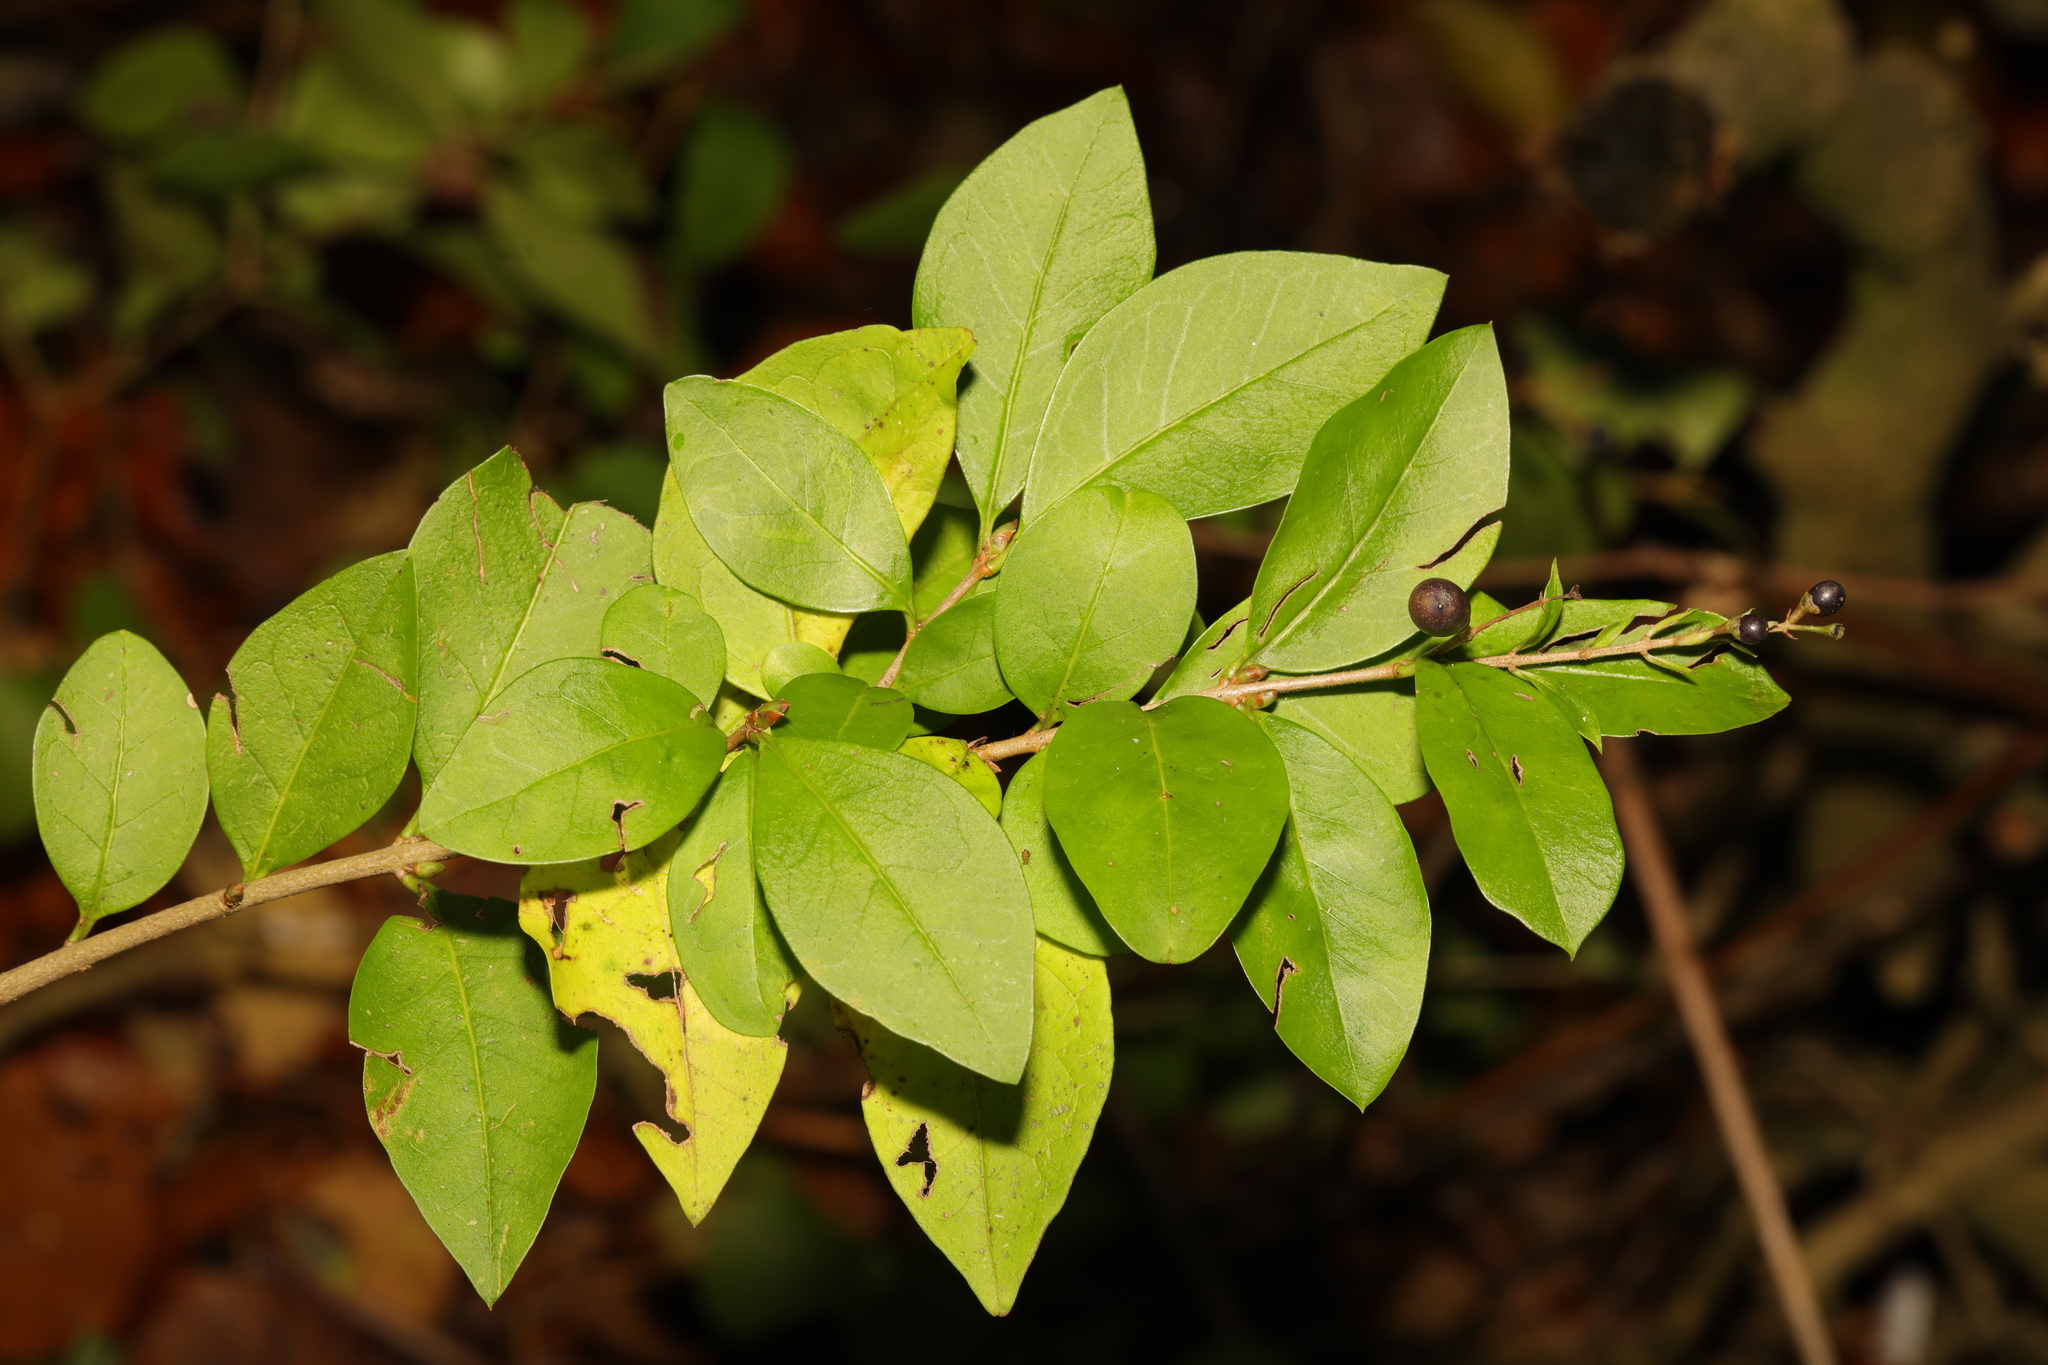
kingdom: Plantae
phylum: Tracheophyta
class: Magnoliopsida
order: Lamiales
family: Oleaceae
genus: Ligustrum
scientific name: Ligustrum ovalifolium
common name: California privet
